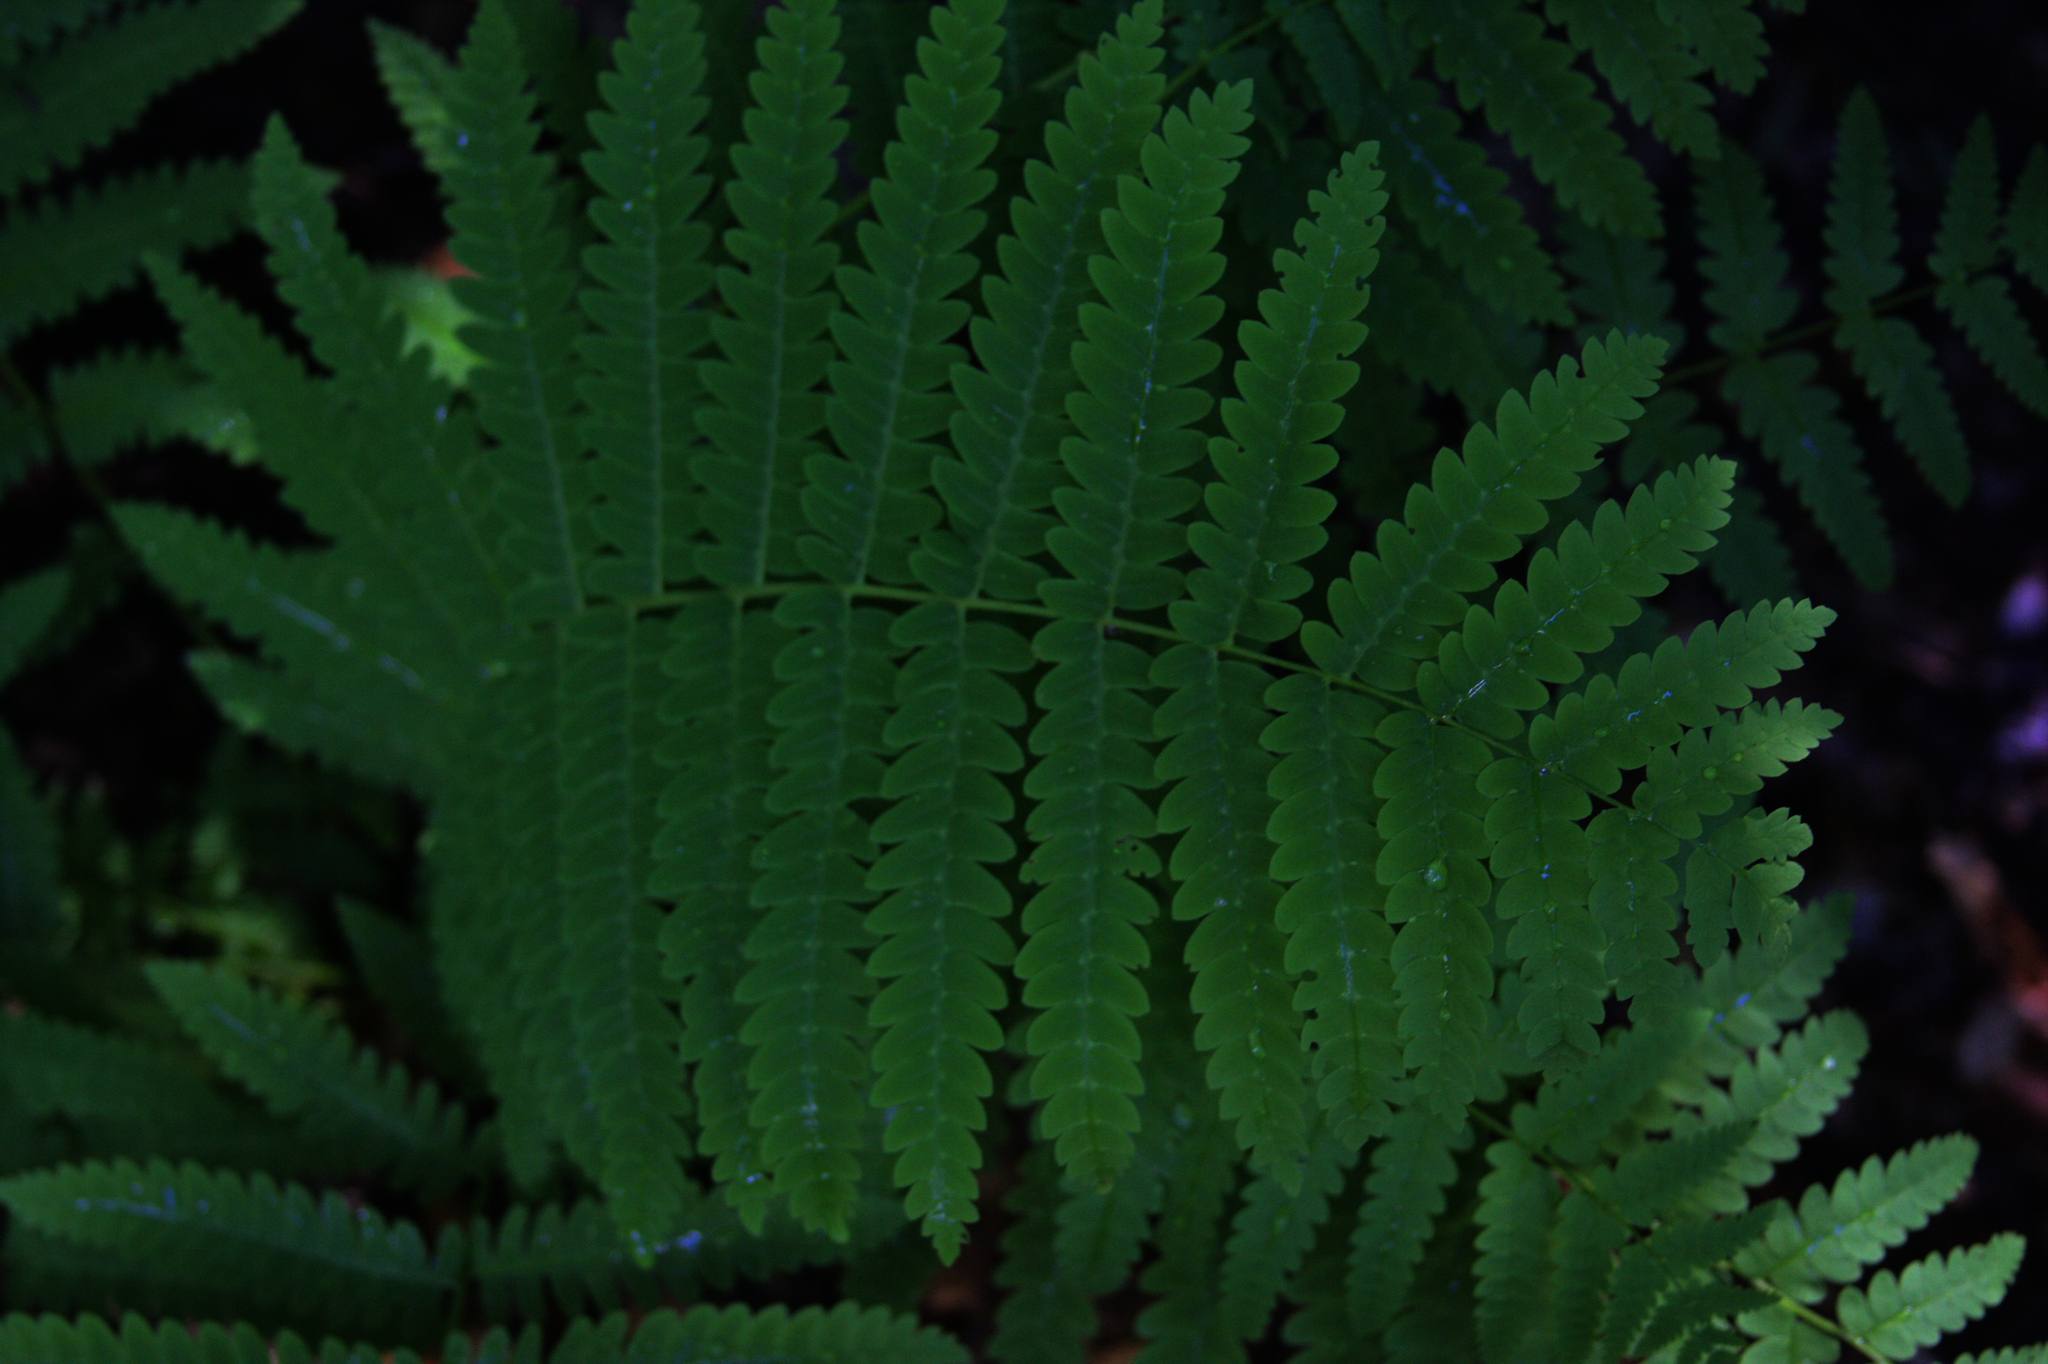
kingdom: Plantae
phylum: Tracheophyta
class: Polypodiopsida
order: Osmundales
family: Osmundaceae
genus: Claytosmunda
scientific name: Claytosmunda claytoniana
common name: Clayton's fern
